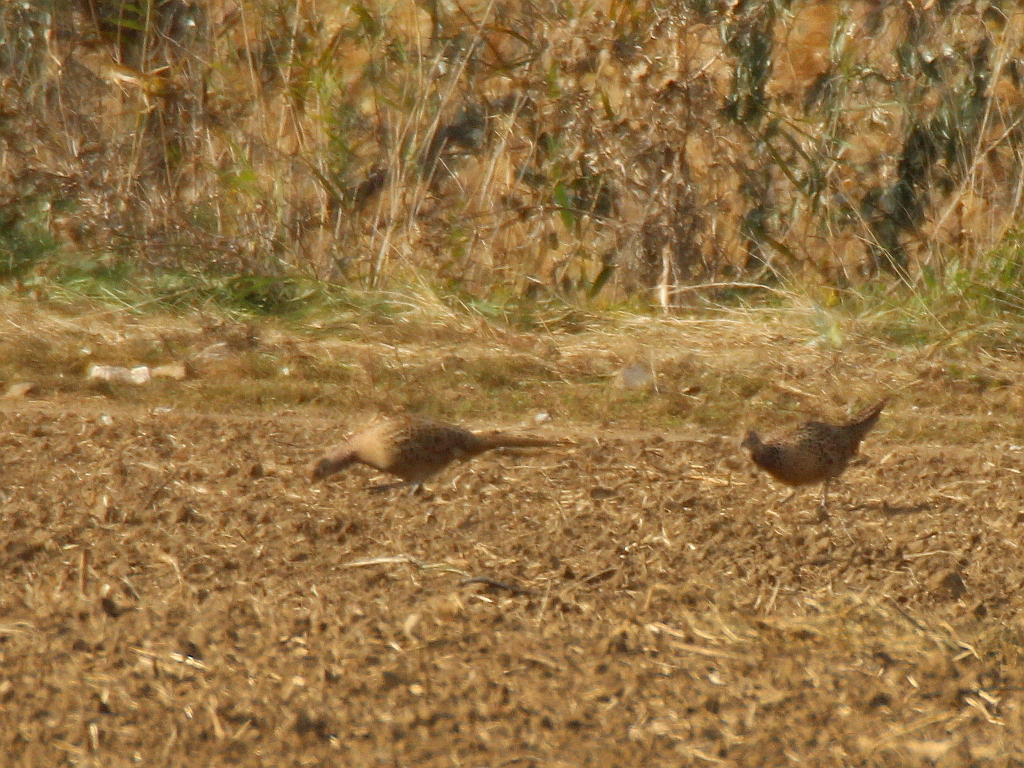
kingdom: Animalia
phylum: Chordata
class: Aves
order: Galliformes
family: Phasianidae
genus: Phasianus
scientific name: Phasianus colchicus
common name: Common pheasant
